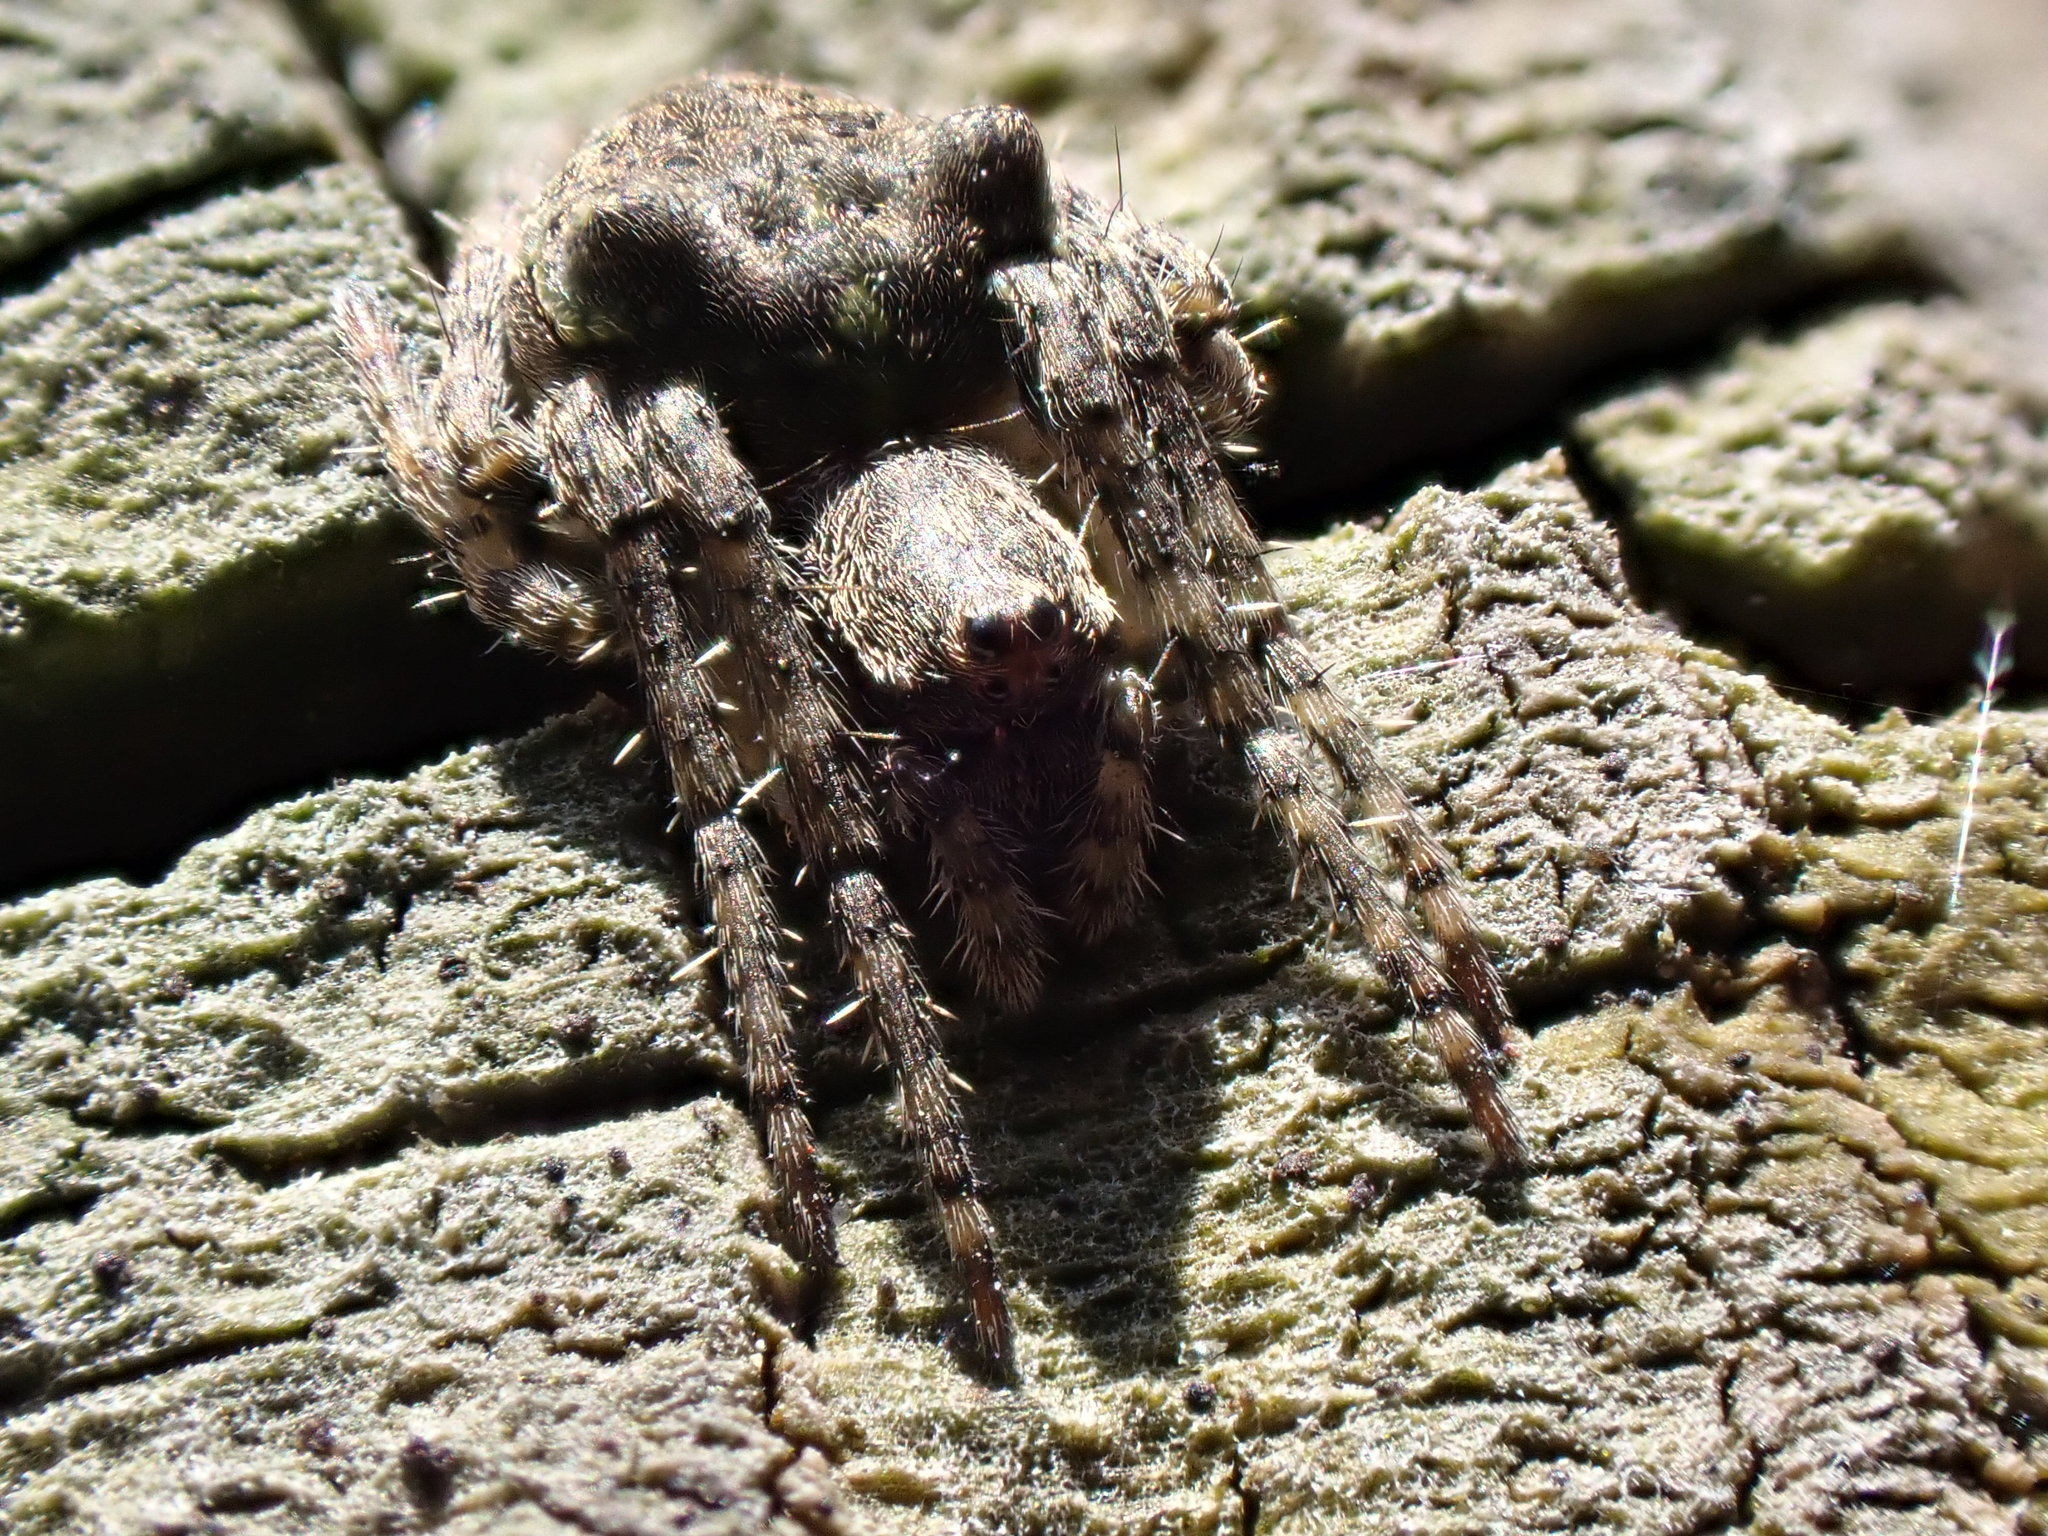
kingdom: Animalia
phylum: Arthropoda
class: Arachnida
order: Araneae
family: Araneidae
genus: Gibbaranea
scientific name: Gibbaranea gibbosa
